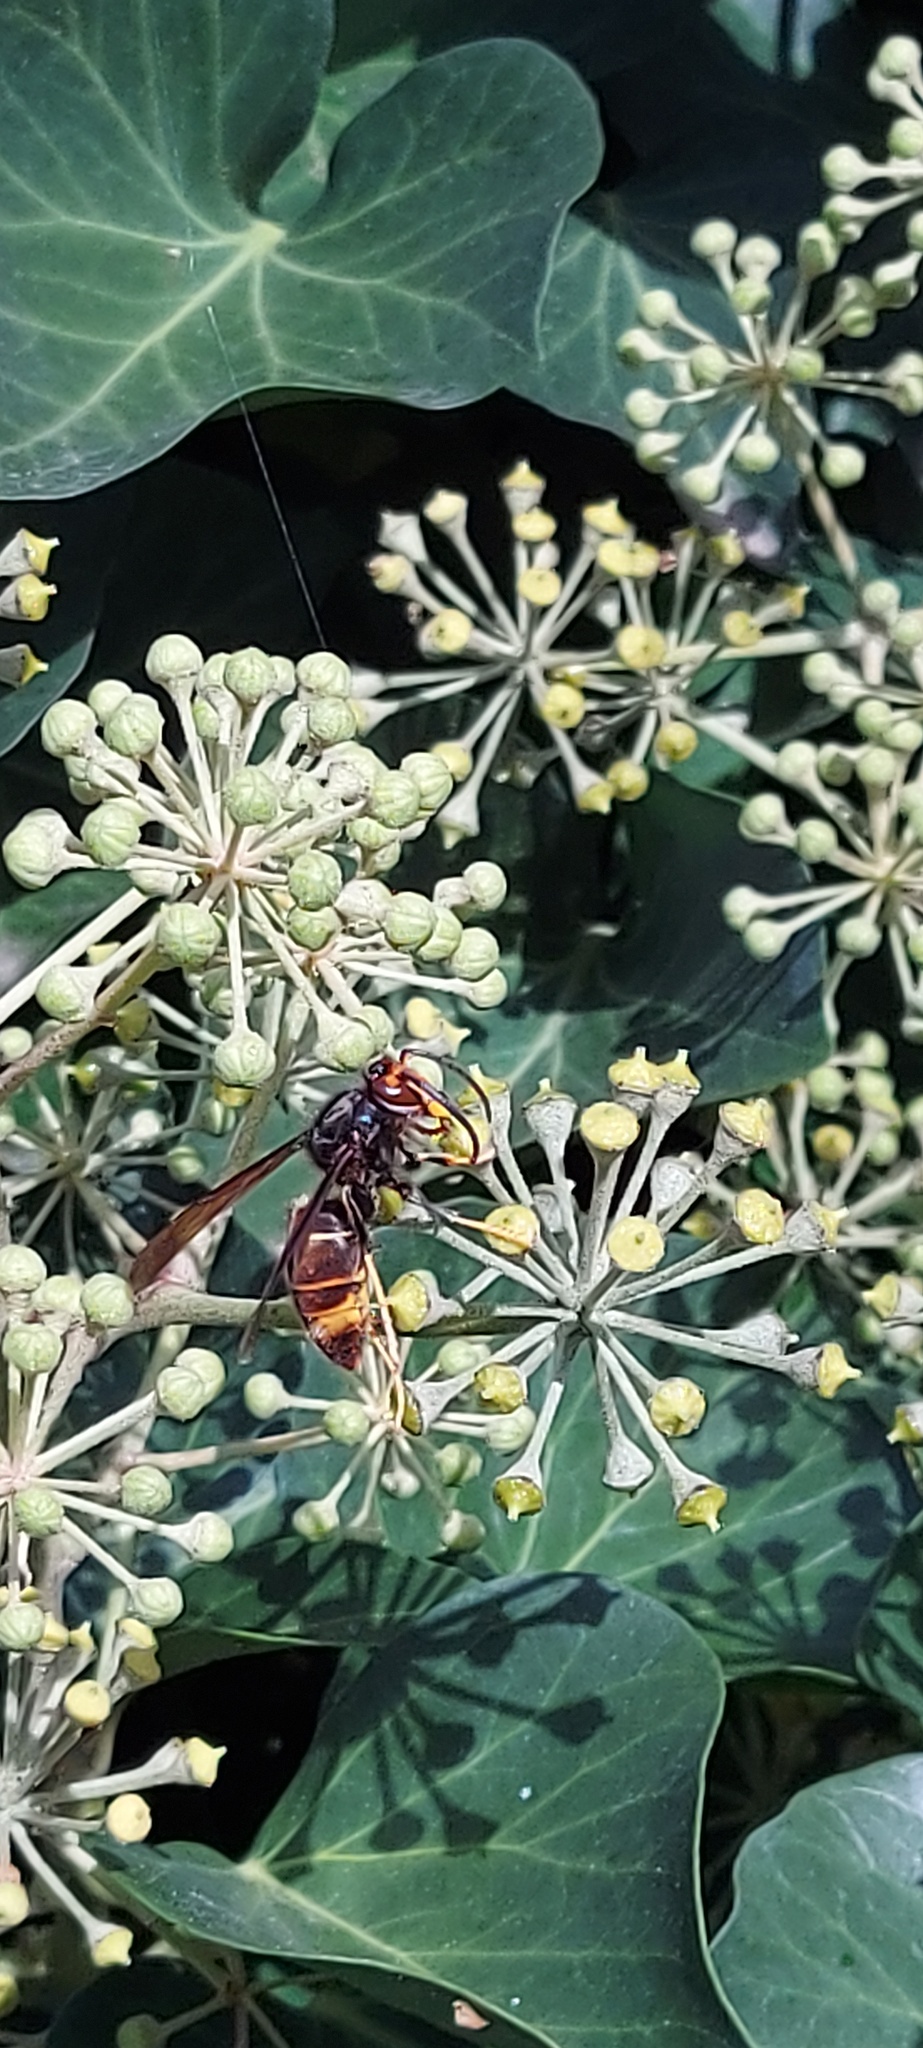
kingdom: Animalia
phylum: Arthropoda
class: Insecta
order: Hymenoptera
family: Vespidae
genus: Vespa
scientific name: Vespa velutina
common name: Asian hornet
